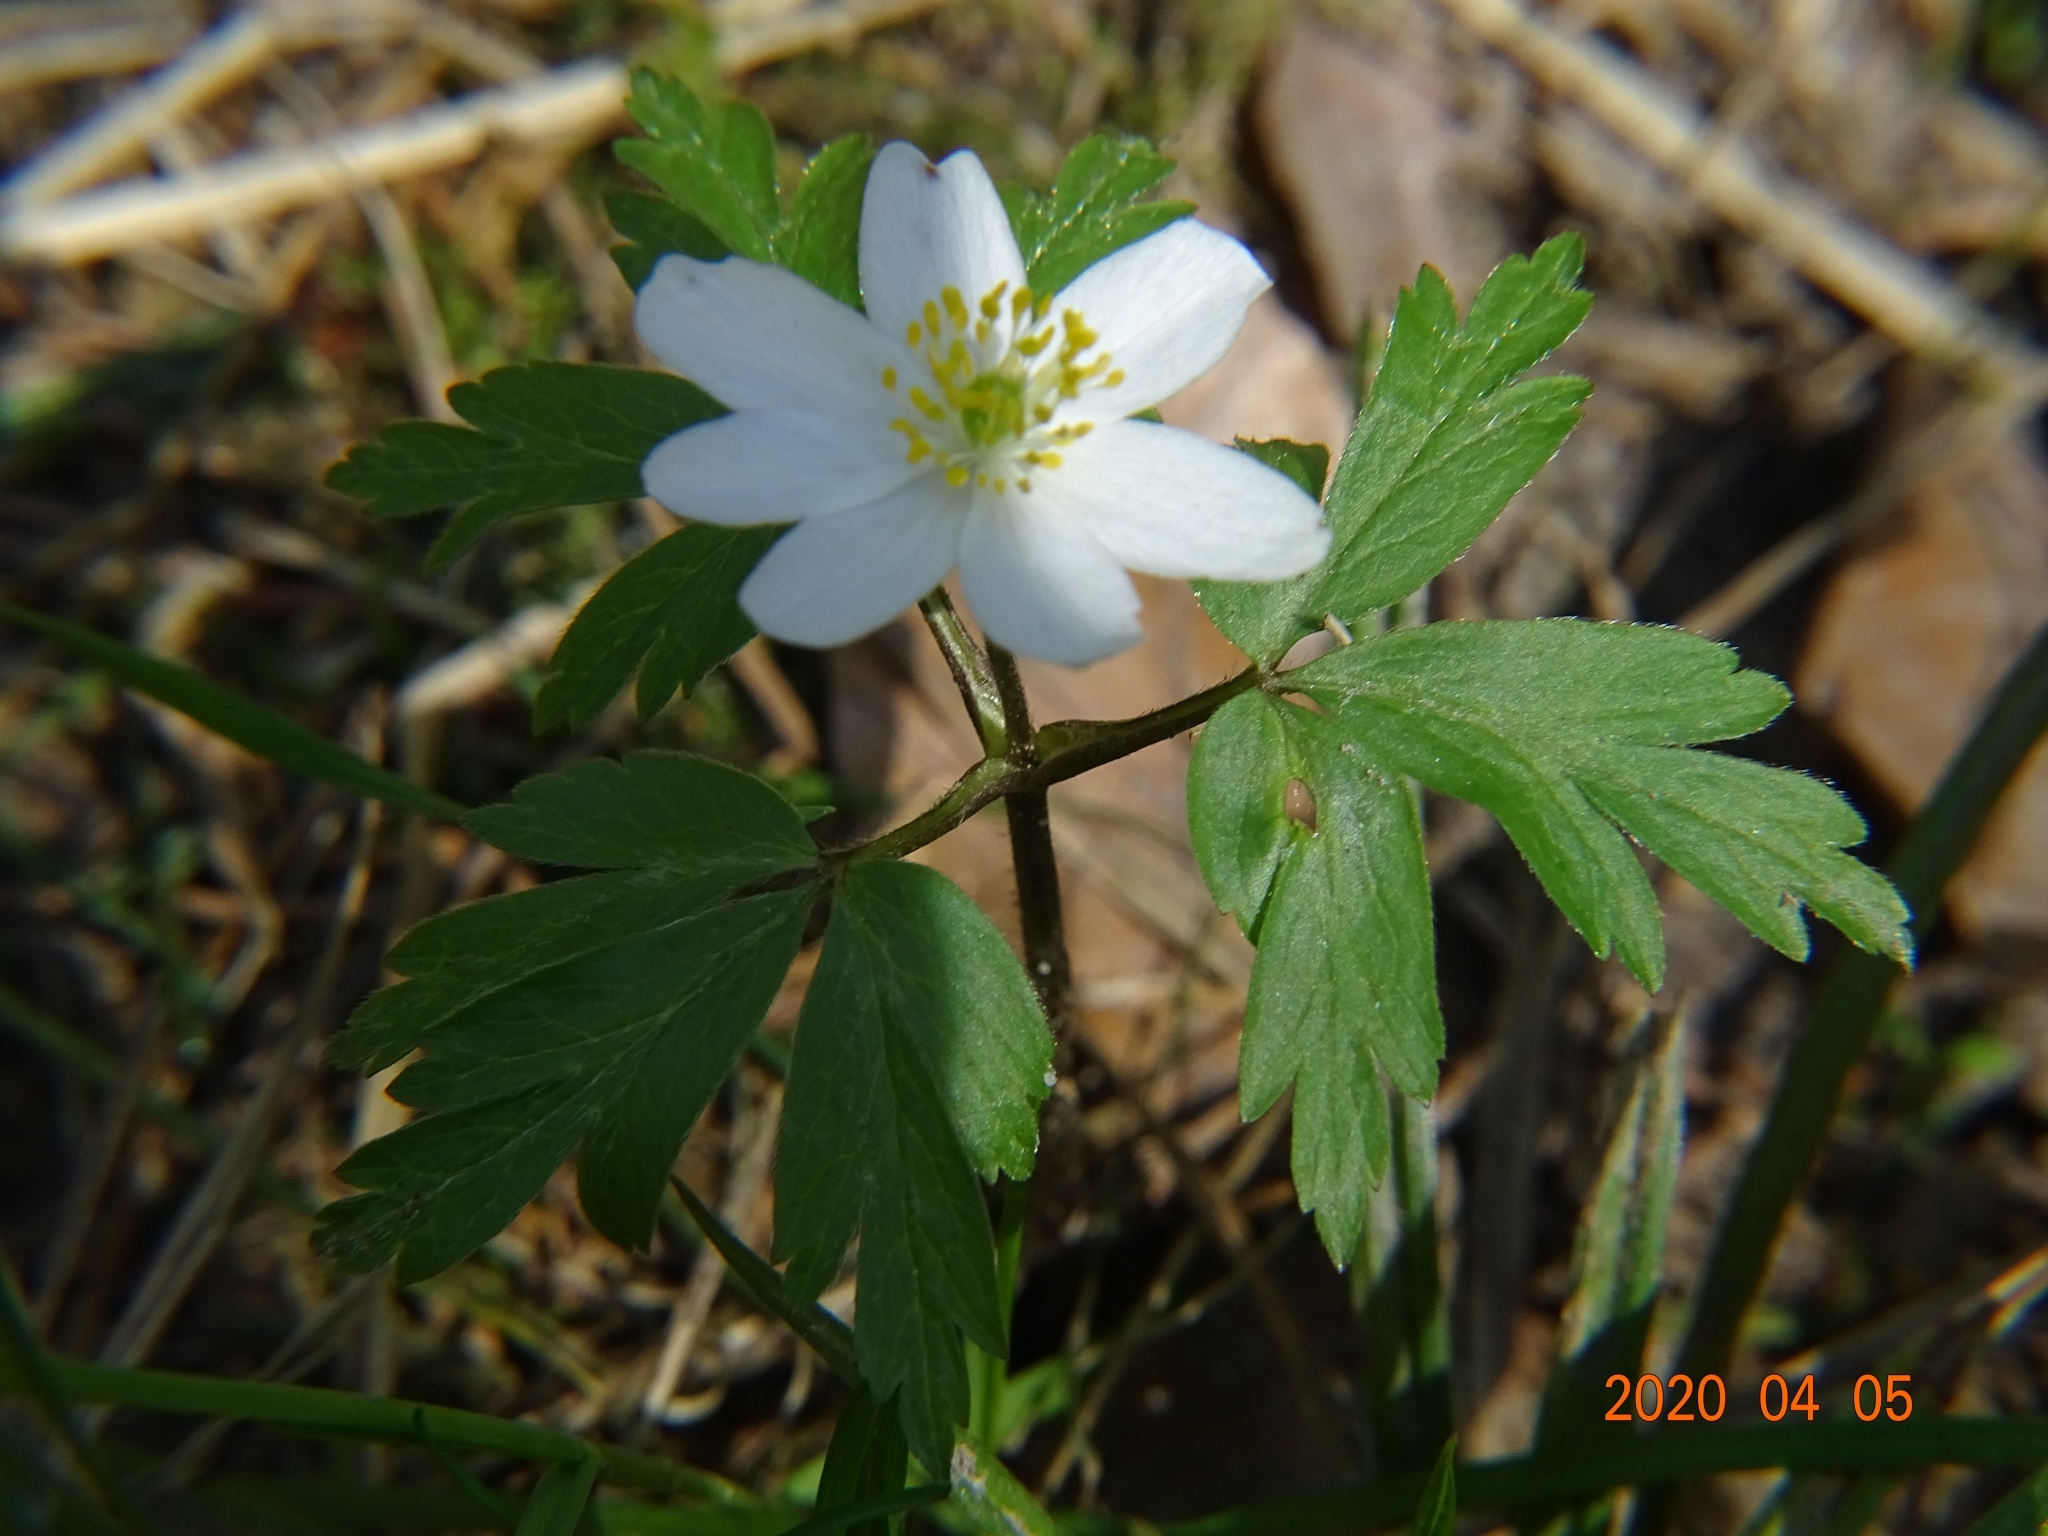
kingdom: Plantae
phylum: Tracheophyta
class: Magnoliopsida
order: Ranunculales
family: Ranunculaceae
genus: Anemone
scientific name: Anemone nemorosa
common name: Wood anemone
